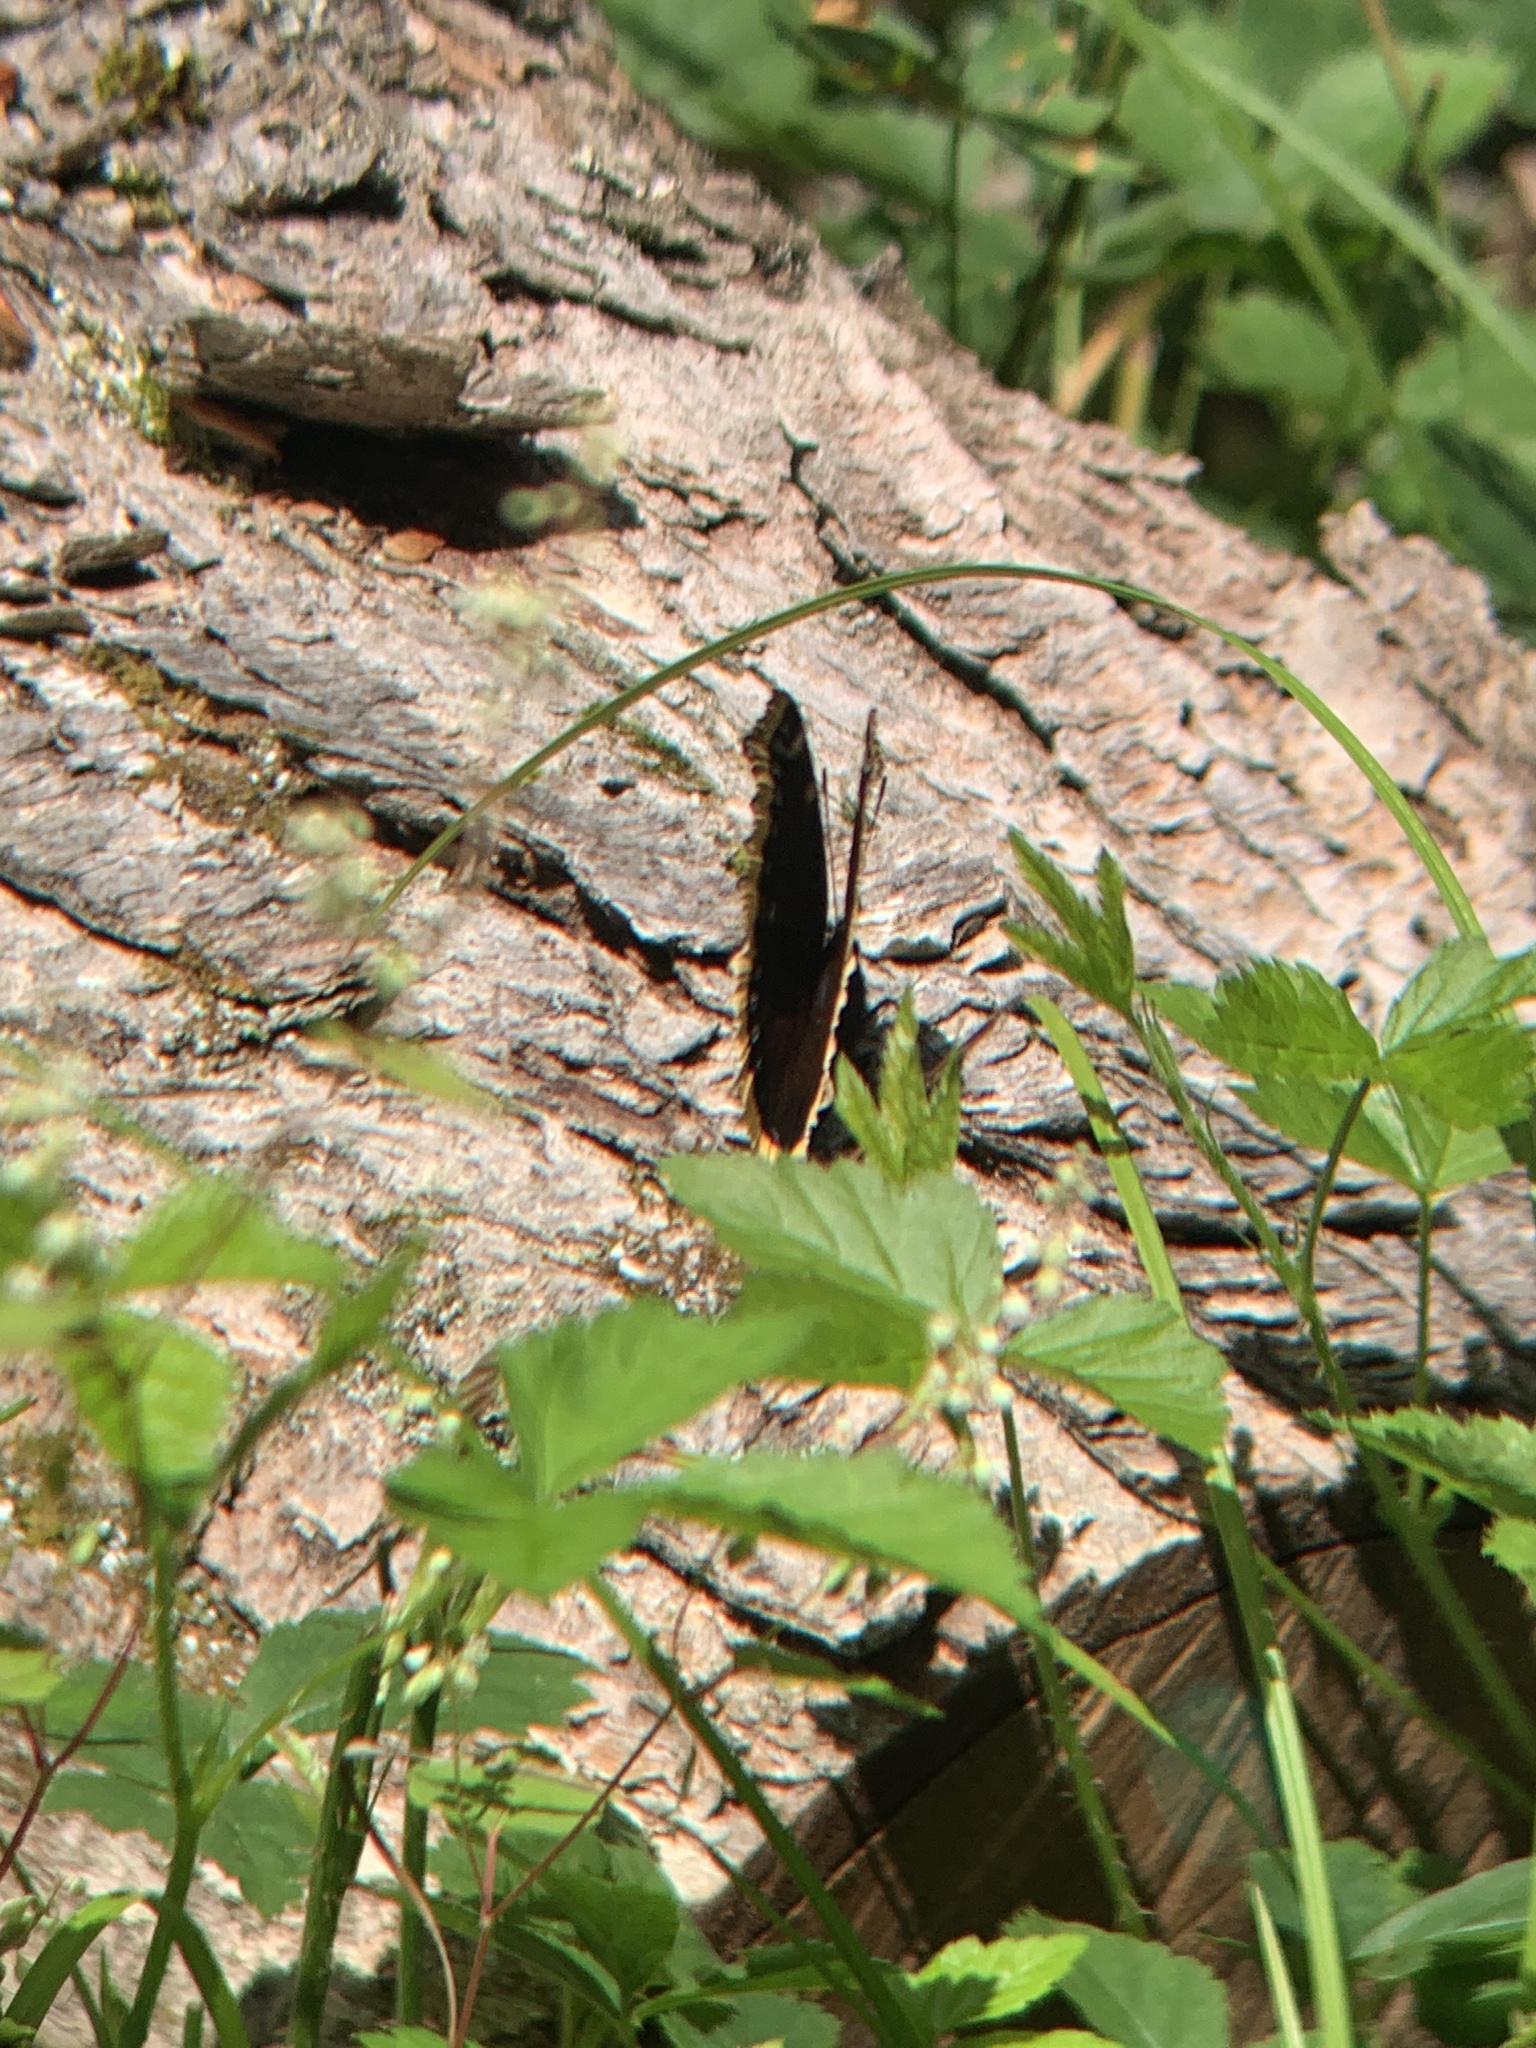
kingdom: Animalia
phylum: Arthropoda
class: Insecta
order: Lepidoptera
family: Nymphalidae
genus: Nymphalis
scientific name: Nymphalis antiopa
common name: Camberwell beauty
